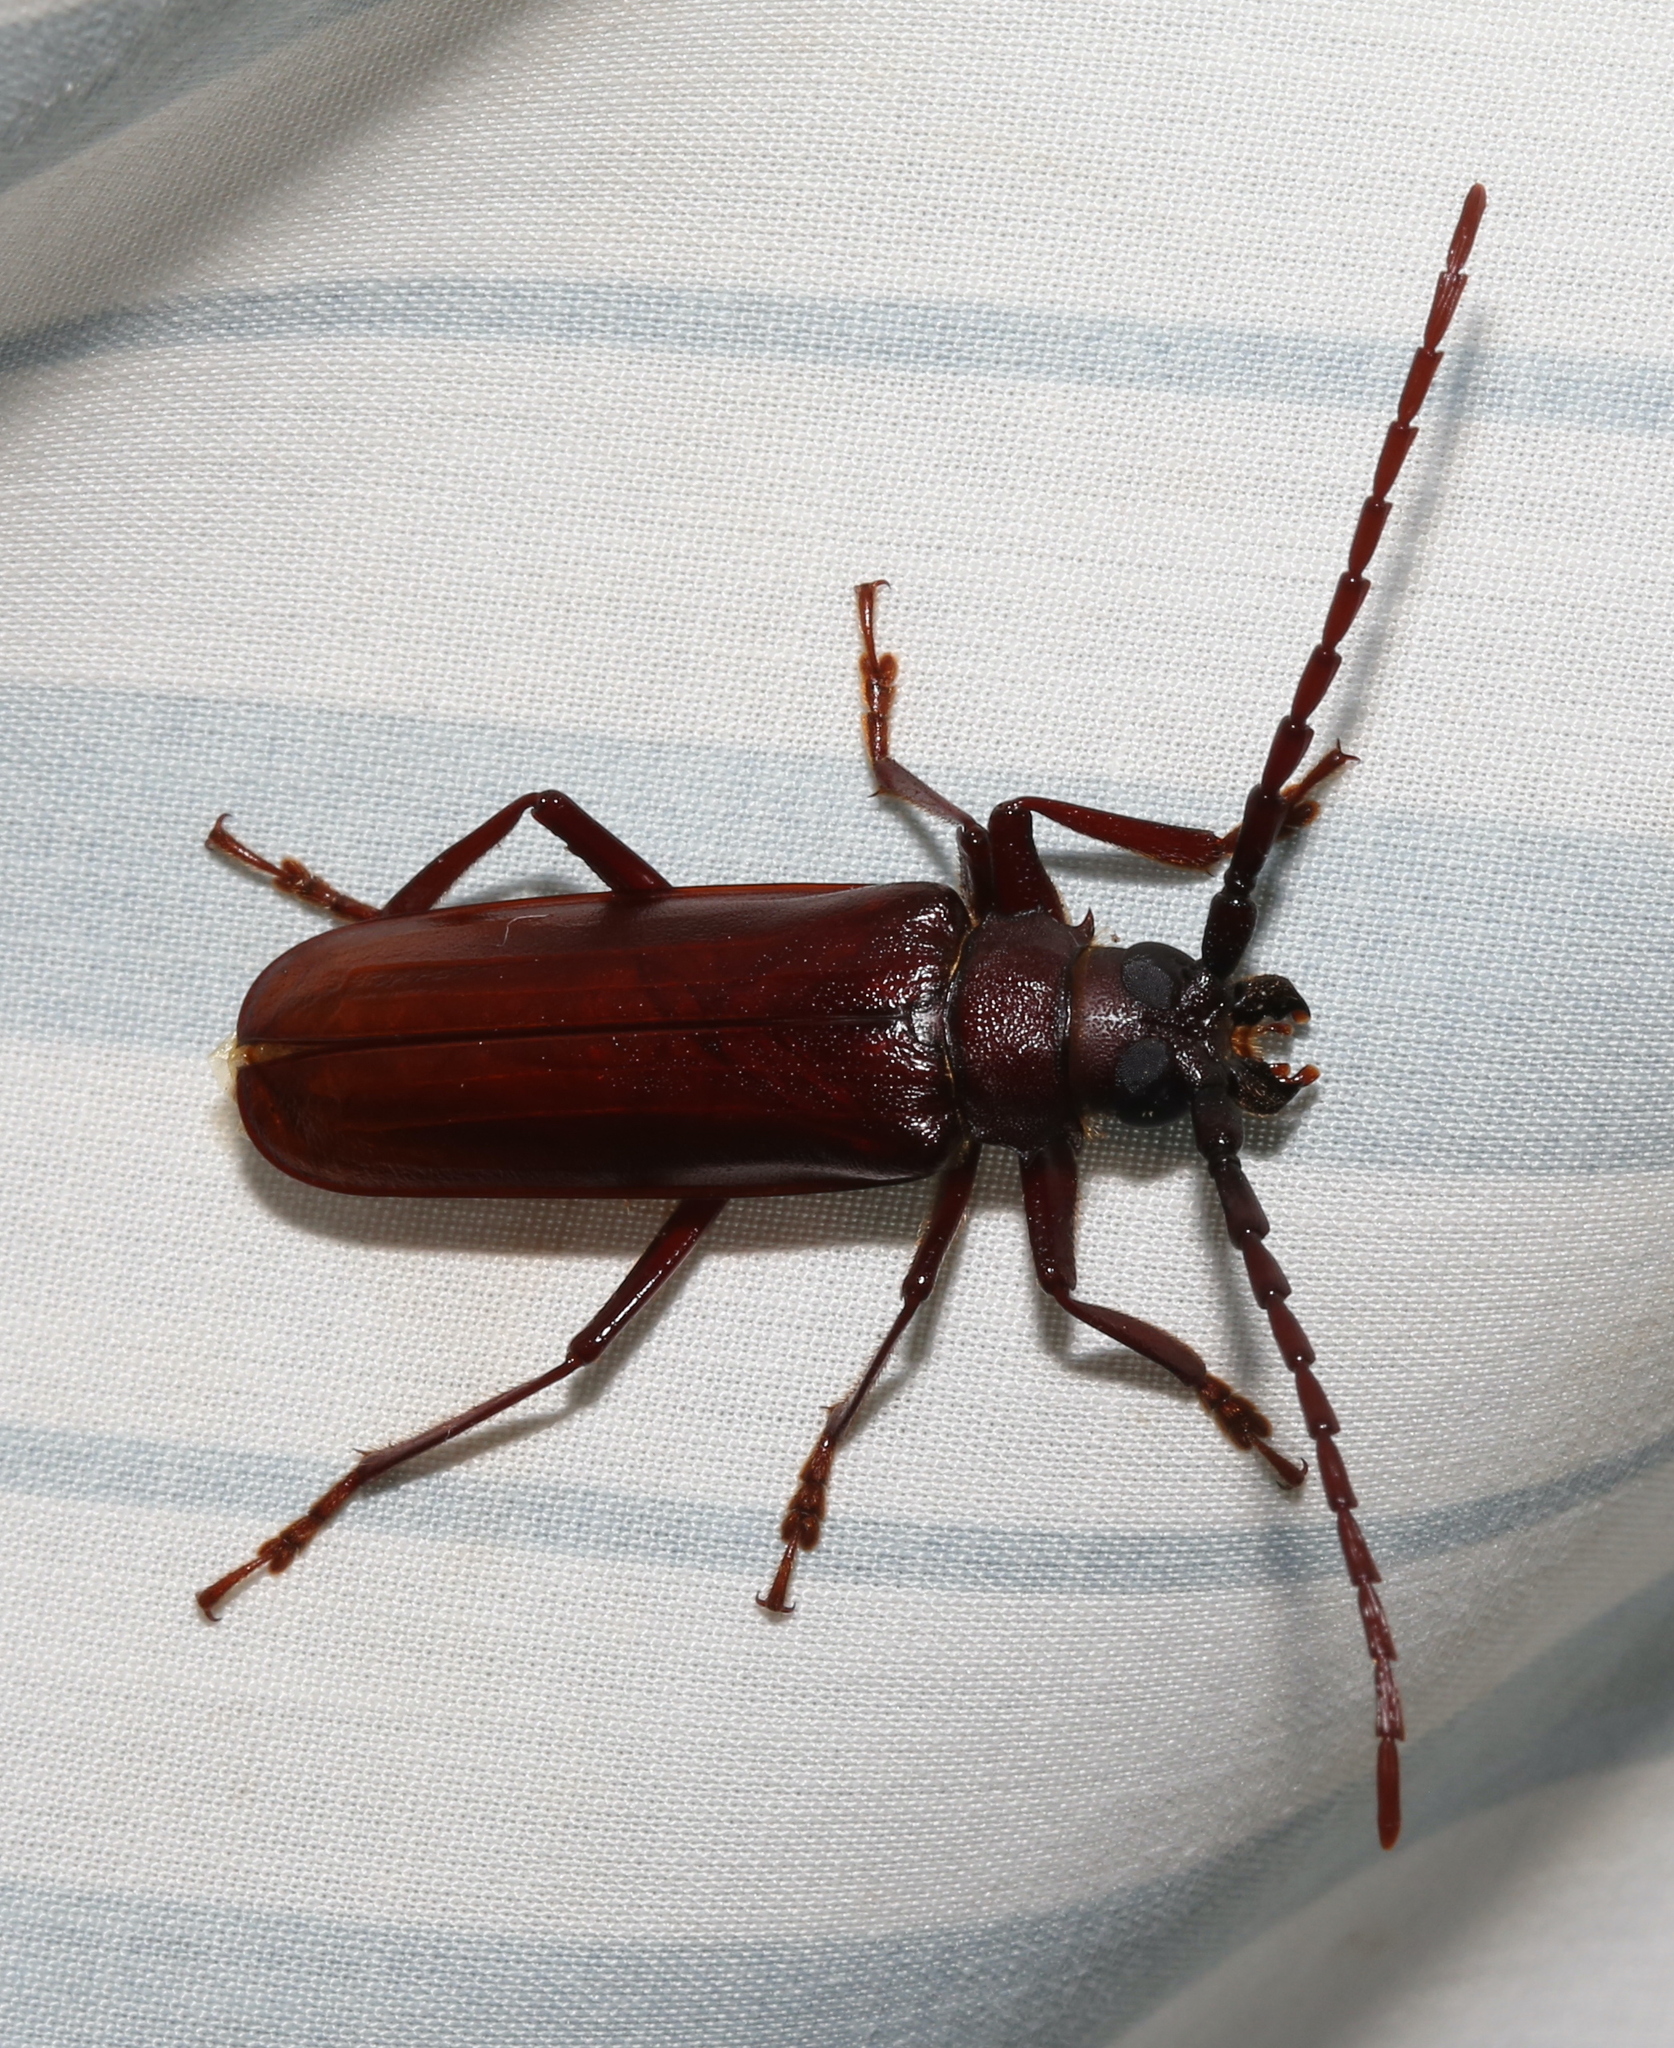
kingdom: Animalia
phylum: Arthropoda
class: Insecta
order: Coleoptera
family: Cerambycidae
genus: Orthosoma
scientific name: Orthosoma brunneum
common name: Brown prionid beetle
